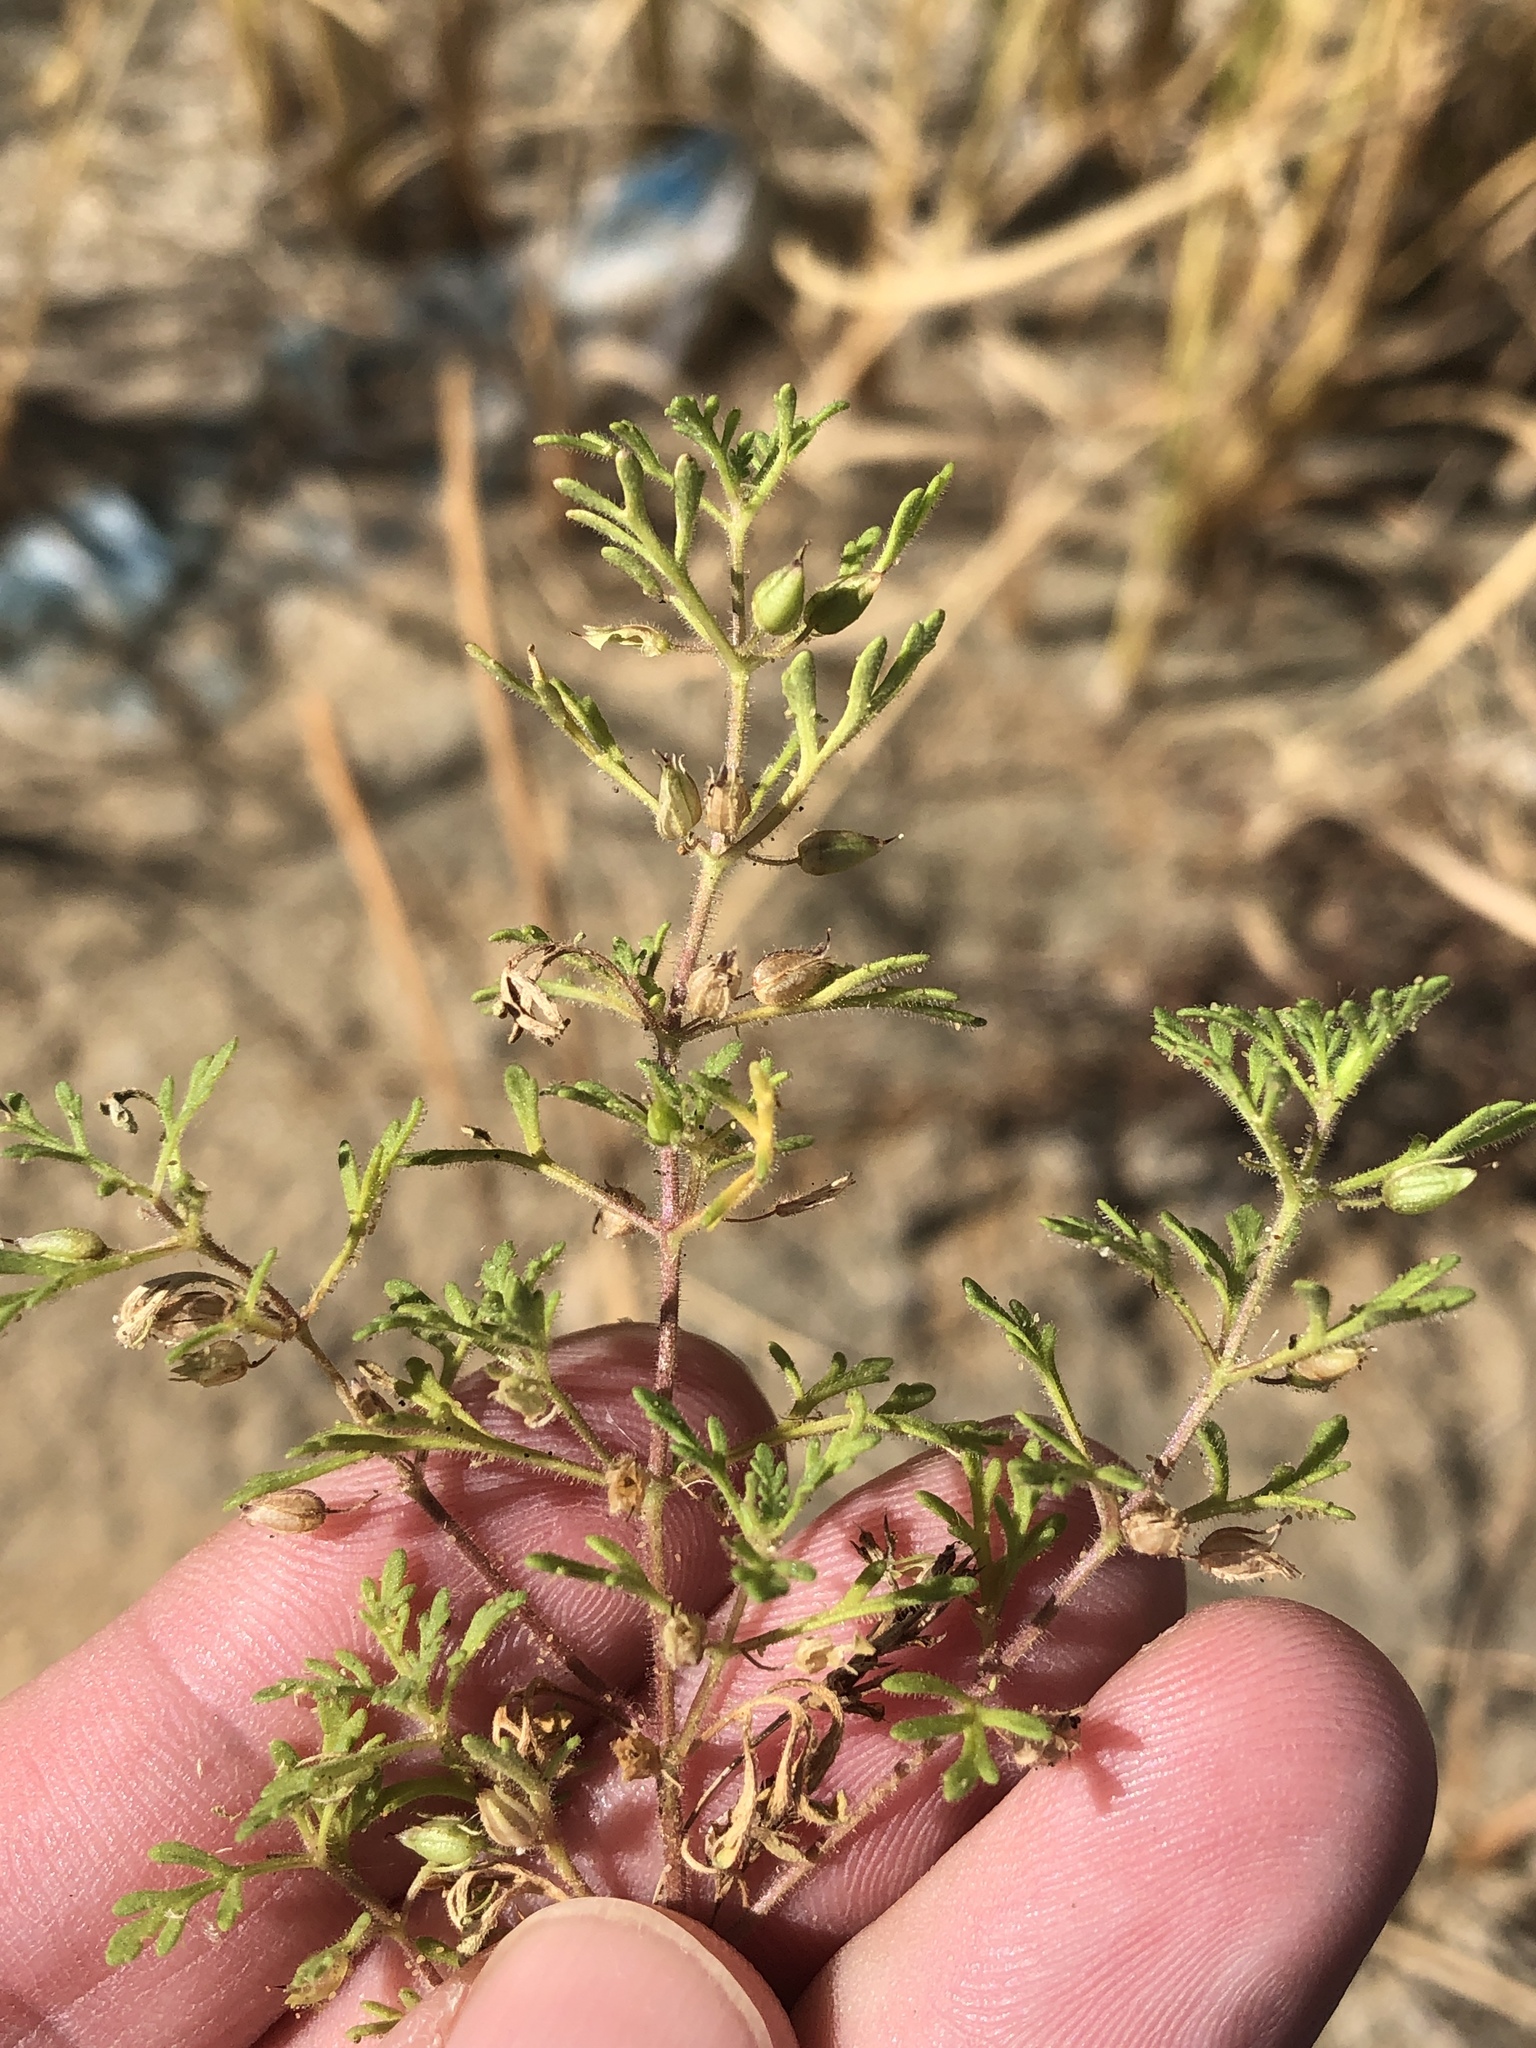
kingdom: Plantae
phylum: Tracheophyta
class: Magnoliopsida
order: Lamiales
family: Plantaginaceae
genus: Leucospora
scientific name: Leucospora multifida
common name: Narrow-leaf paleseed
